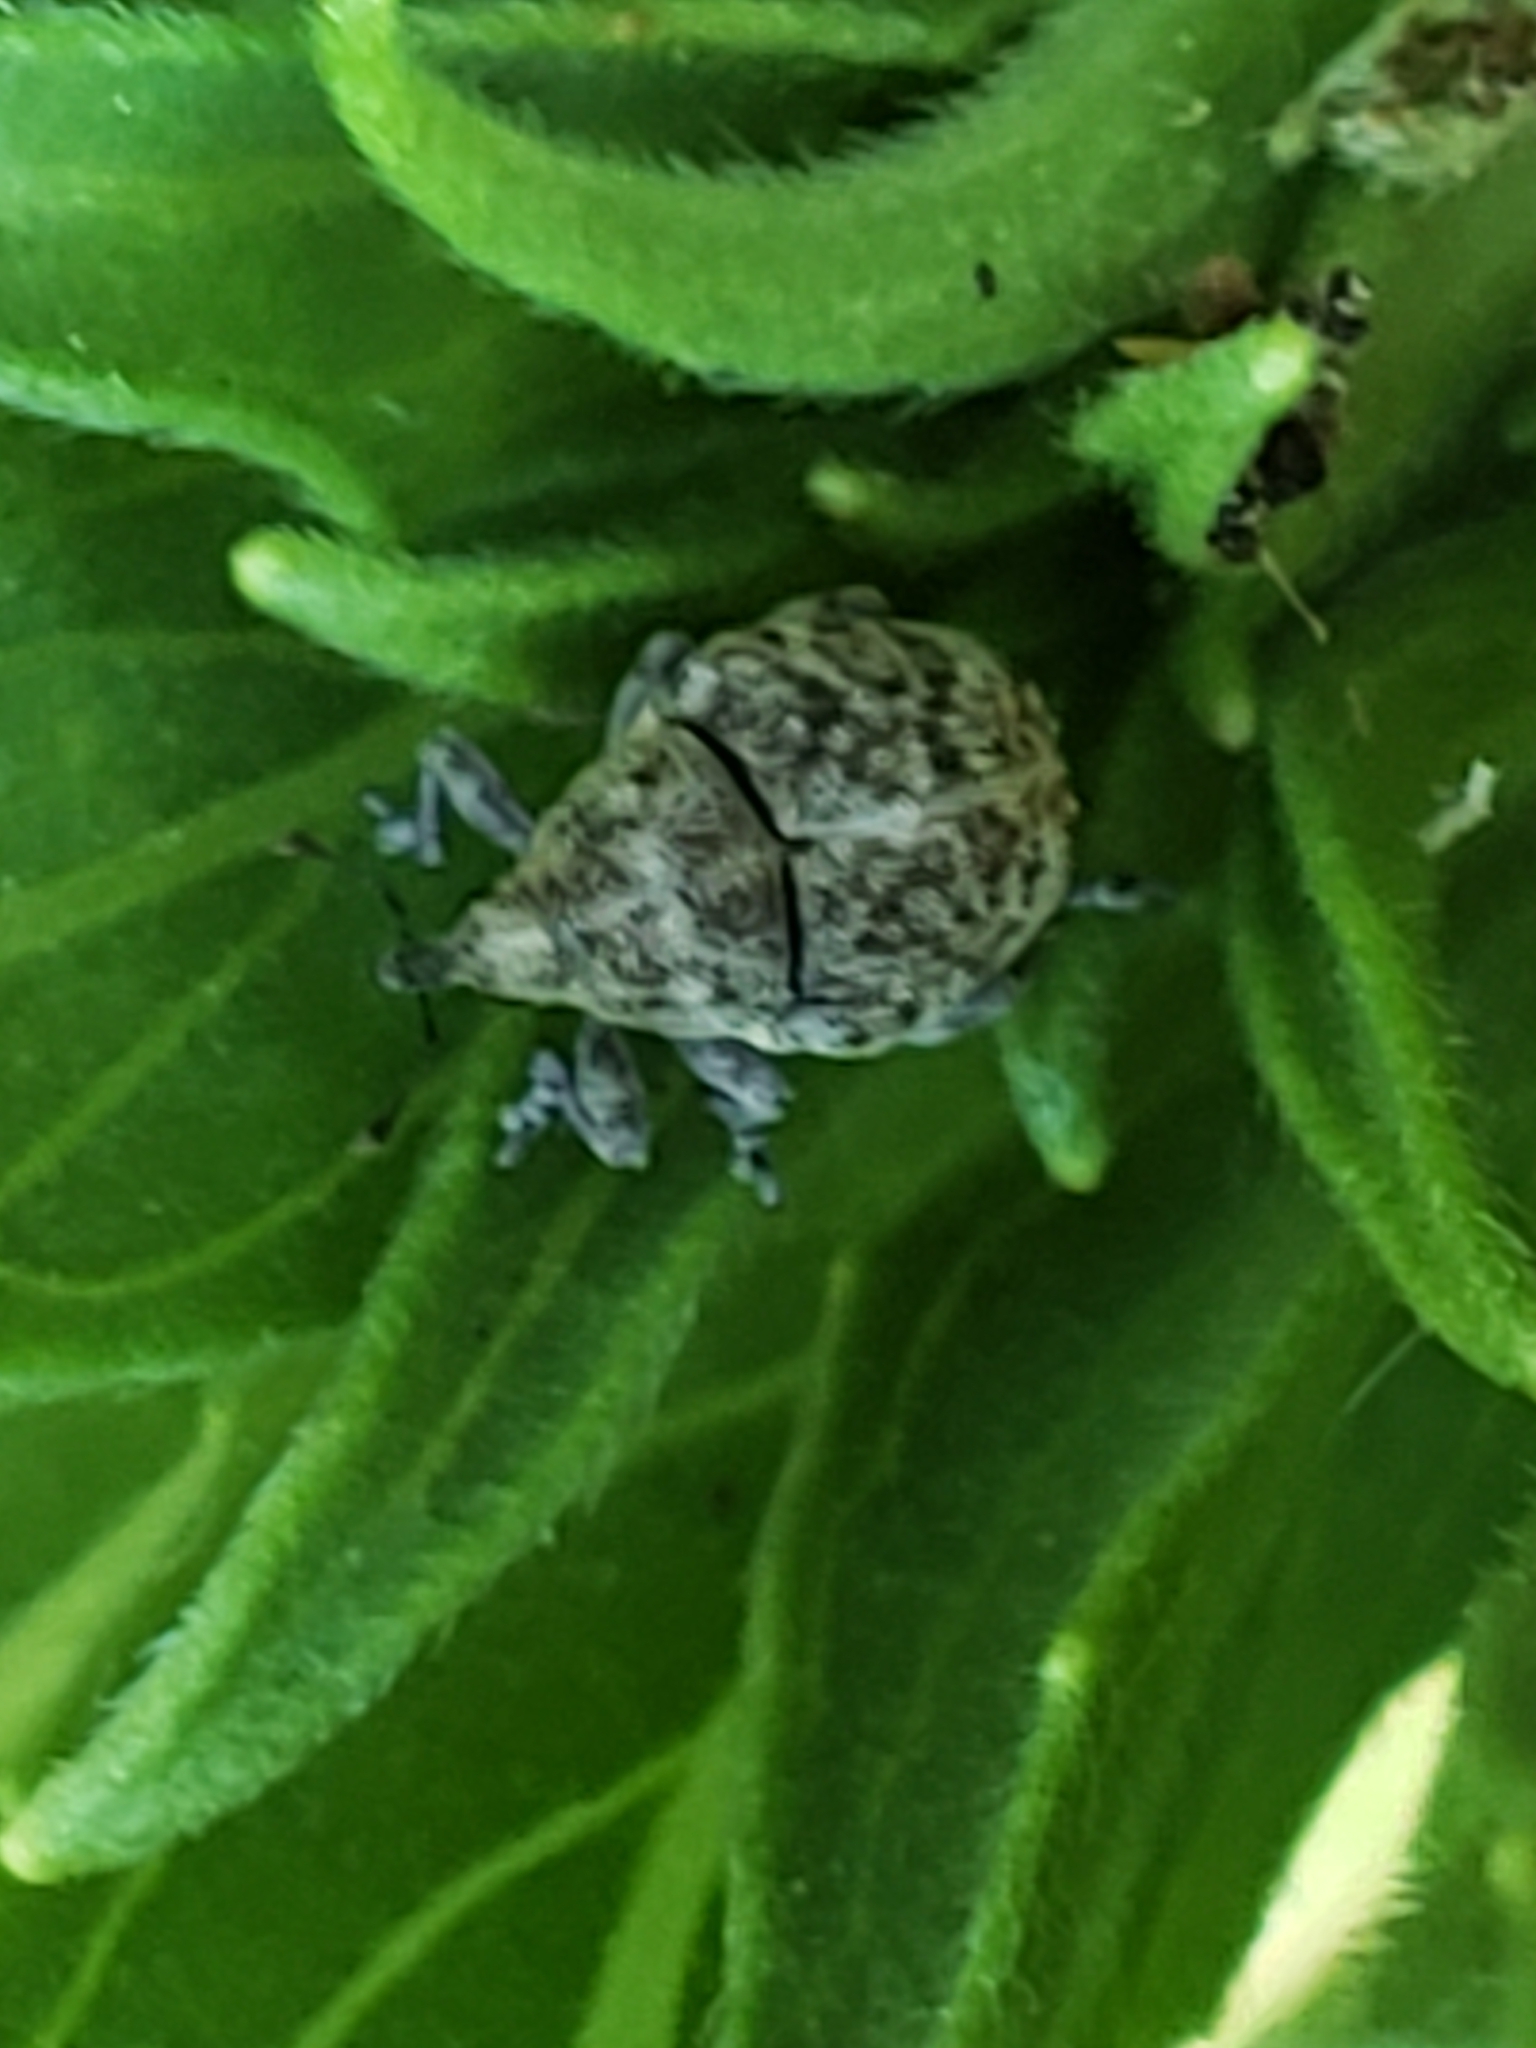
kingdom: Animalia
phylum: Arthropoda
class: Insecta
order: Coleoptera
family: Curculionidae
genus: Acanthoscelidius
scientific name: Acanthoscelidius acephalus
